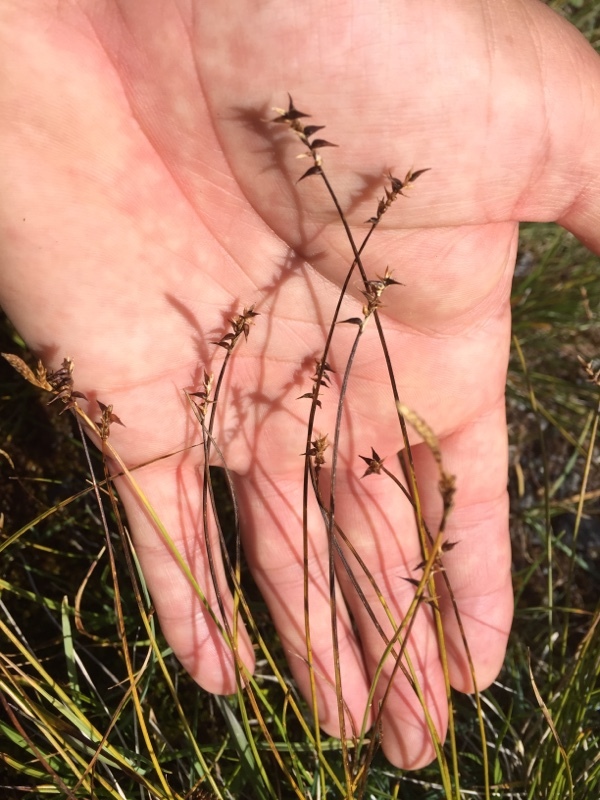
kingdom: Plantae
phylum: Tracheophyta
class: Liliopsida
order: Poales
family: Cyperaceae
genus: Carex
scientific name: Carex davalliana
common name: Davall's sedge
